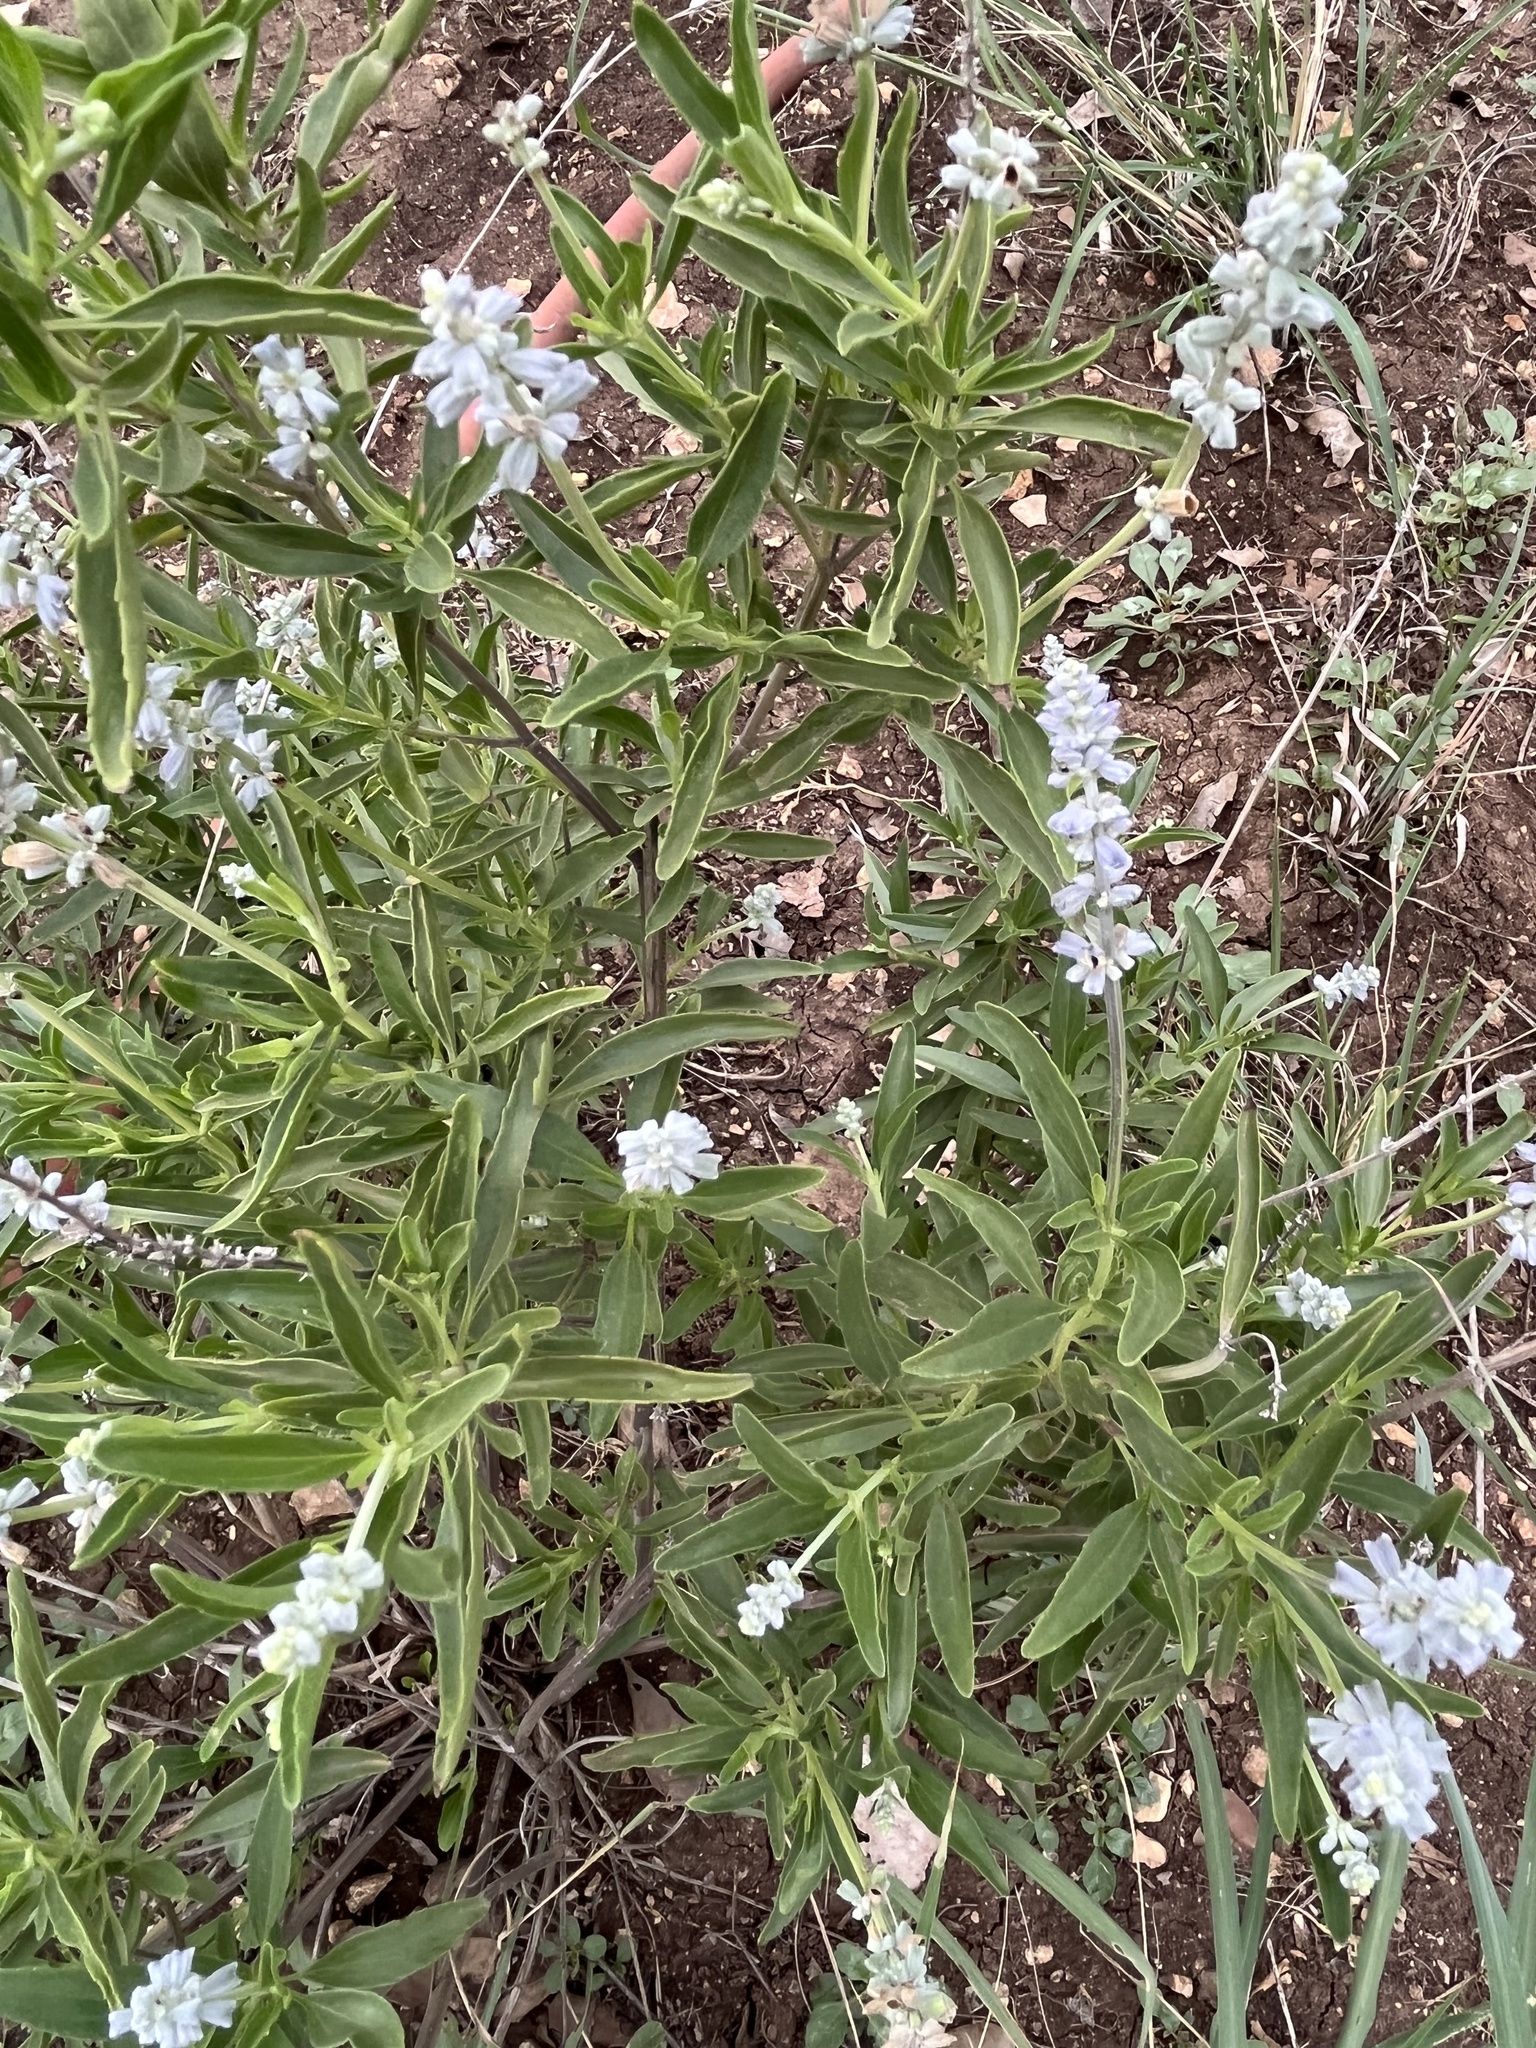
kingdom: Plantae
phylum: Tracheophyta
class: Magnoliopsida
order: Lamiales
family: Lamiaceae
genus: Salvia
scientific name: Salvia farinacea
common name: Mealy sage
